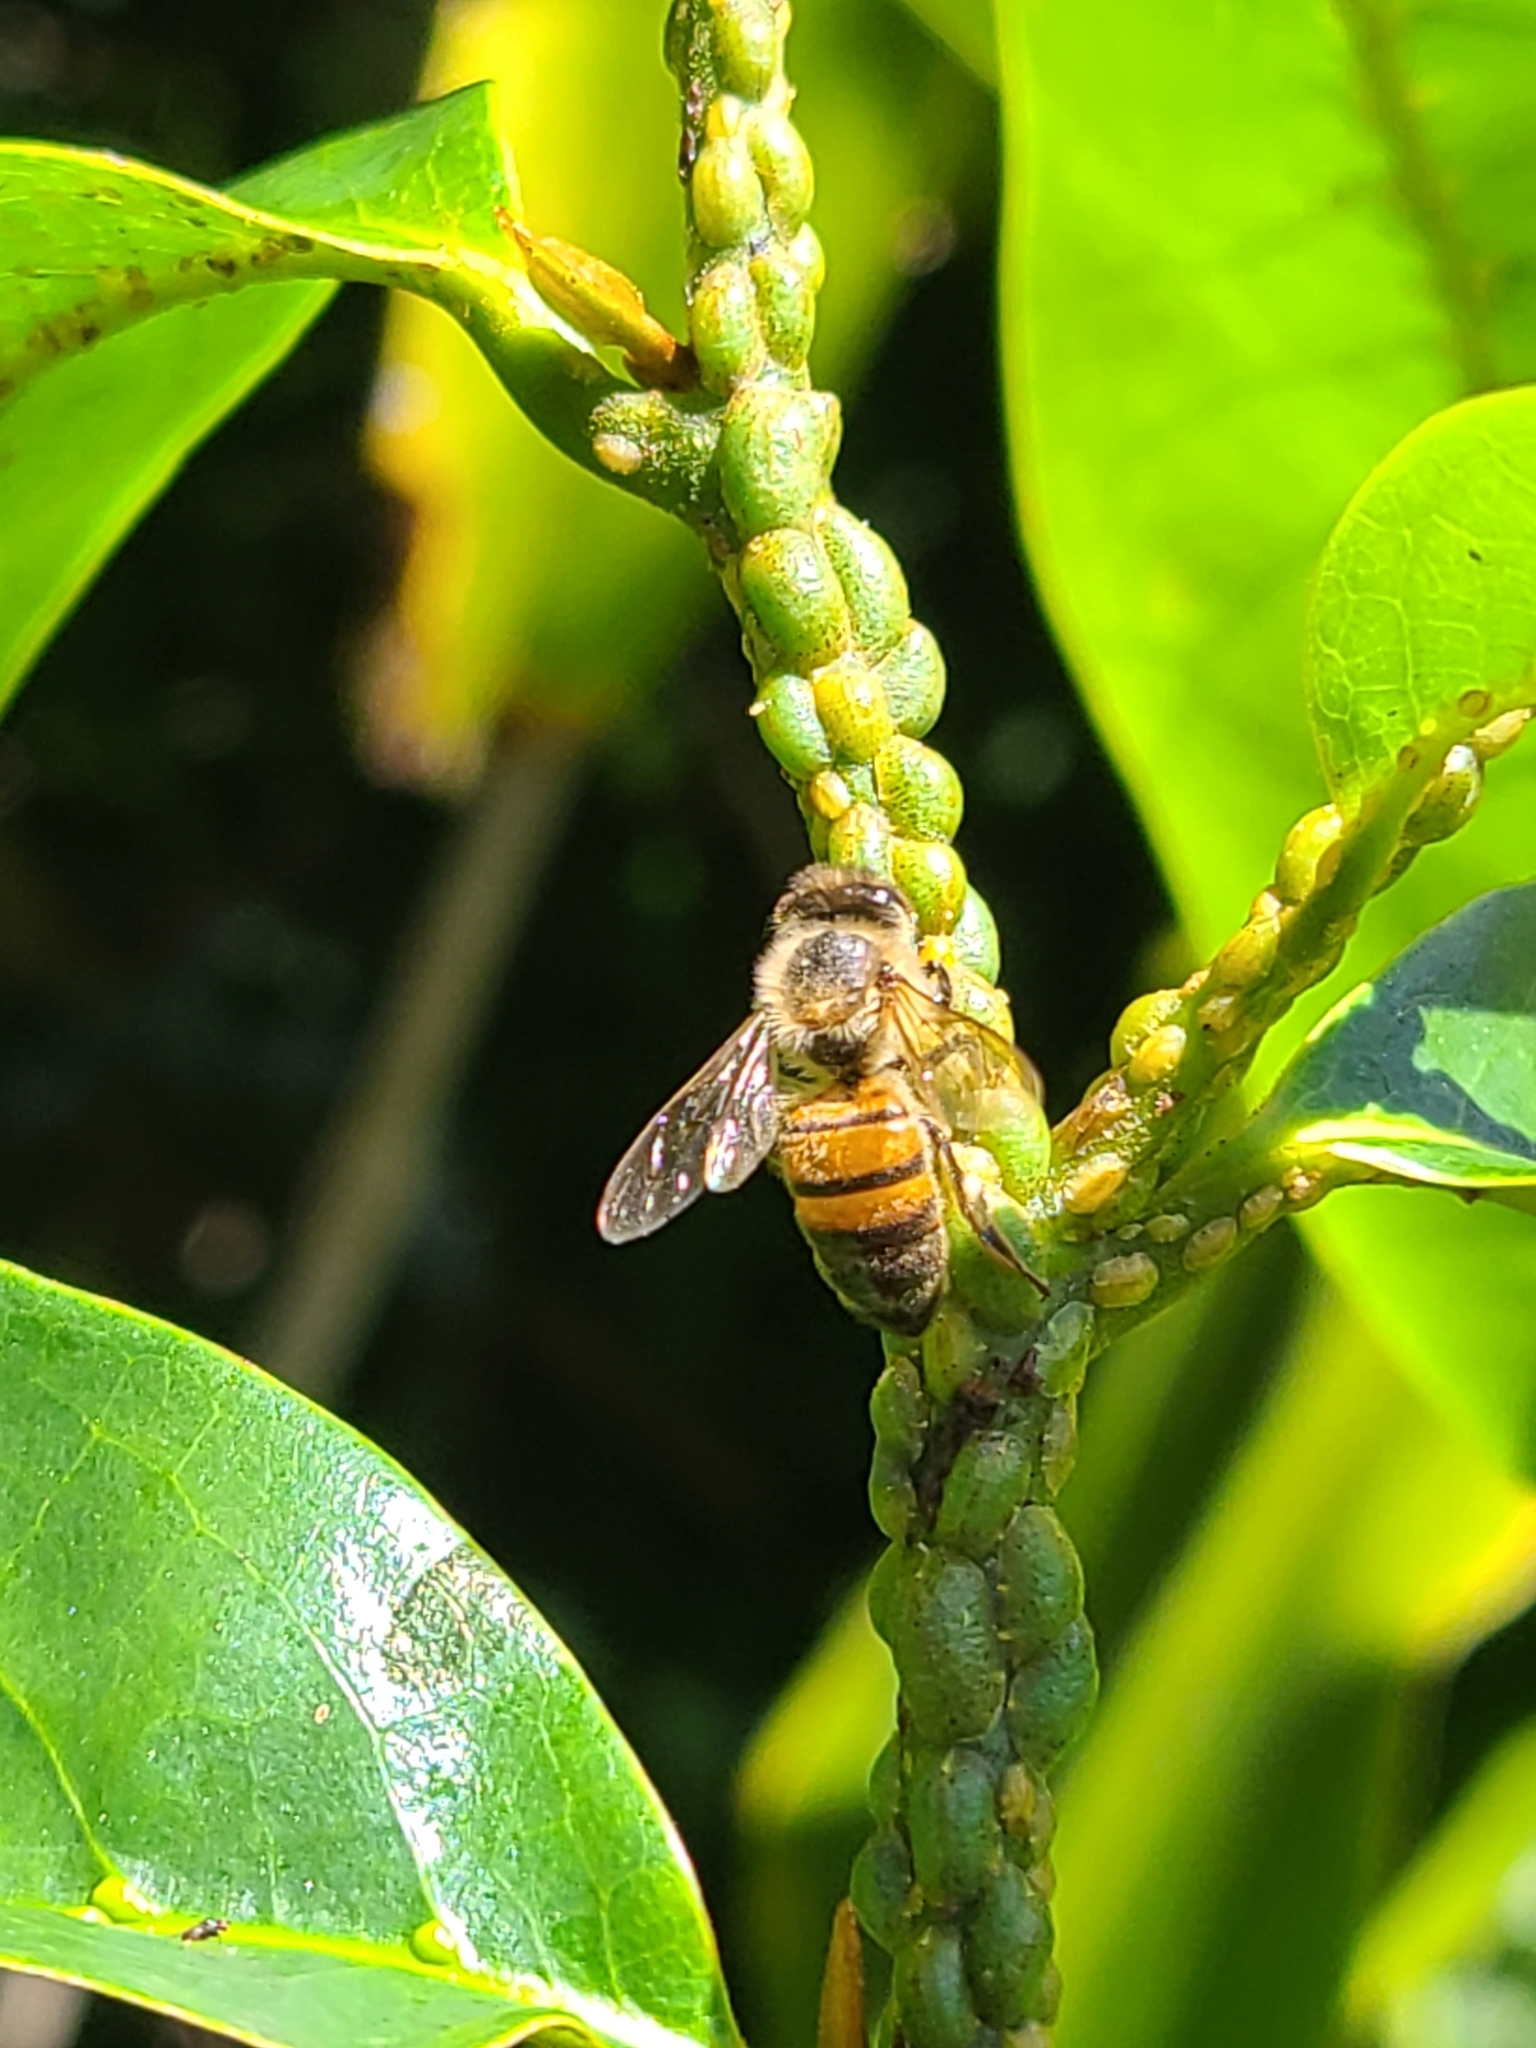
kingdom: Animalia
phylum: Arthropoda
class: Insecta
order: Hymenoptera
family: Apidae
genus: Apis
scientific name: Apis mellifera
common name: Honey bee
